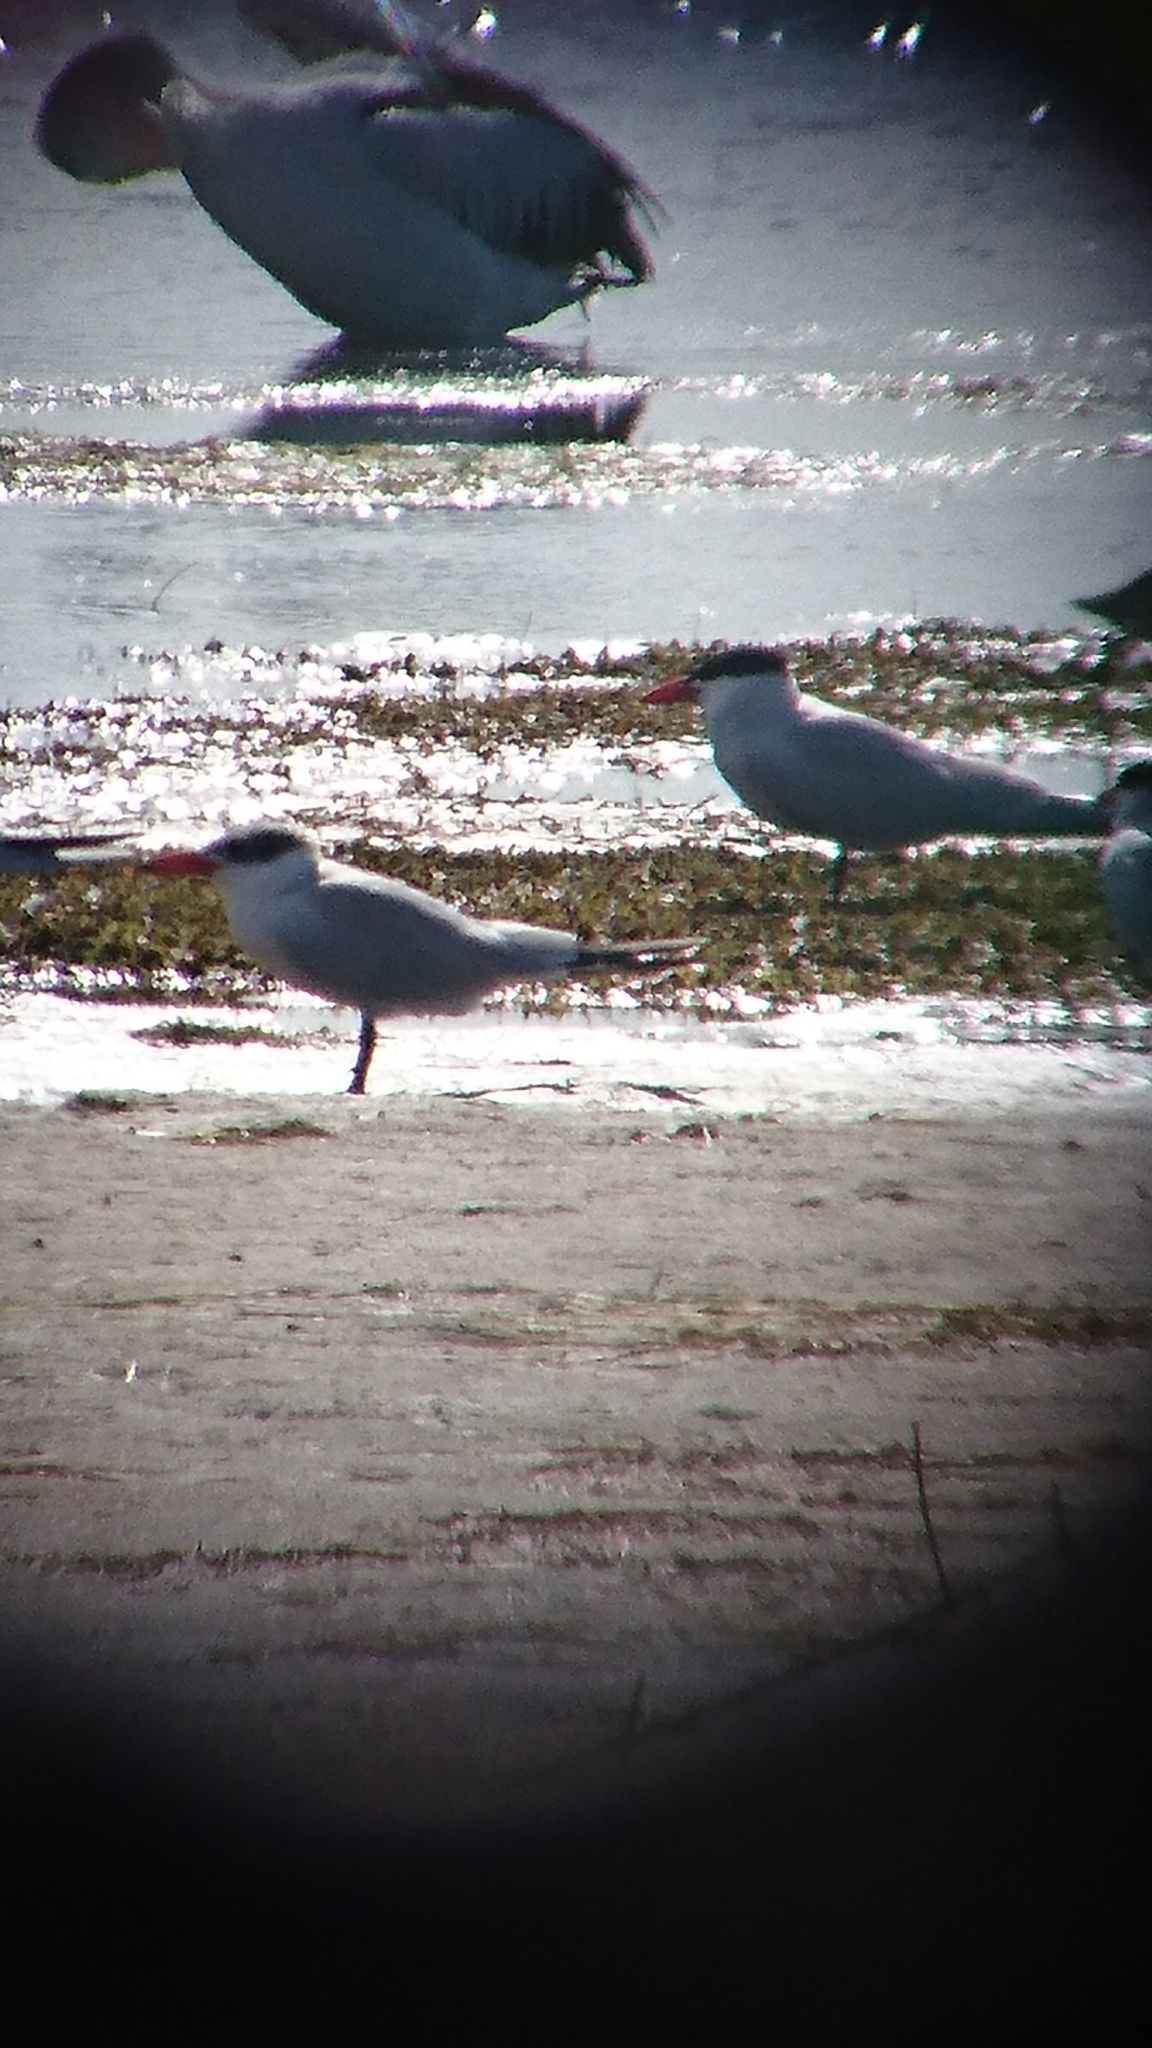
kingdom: Animalia
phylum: Chordata
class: Aves
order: Charadriiformes
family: Laridae
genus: Hydroprogne
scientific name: Hydroprogne caspia
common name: Caspian tern
